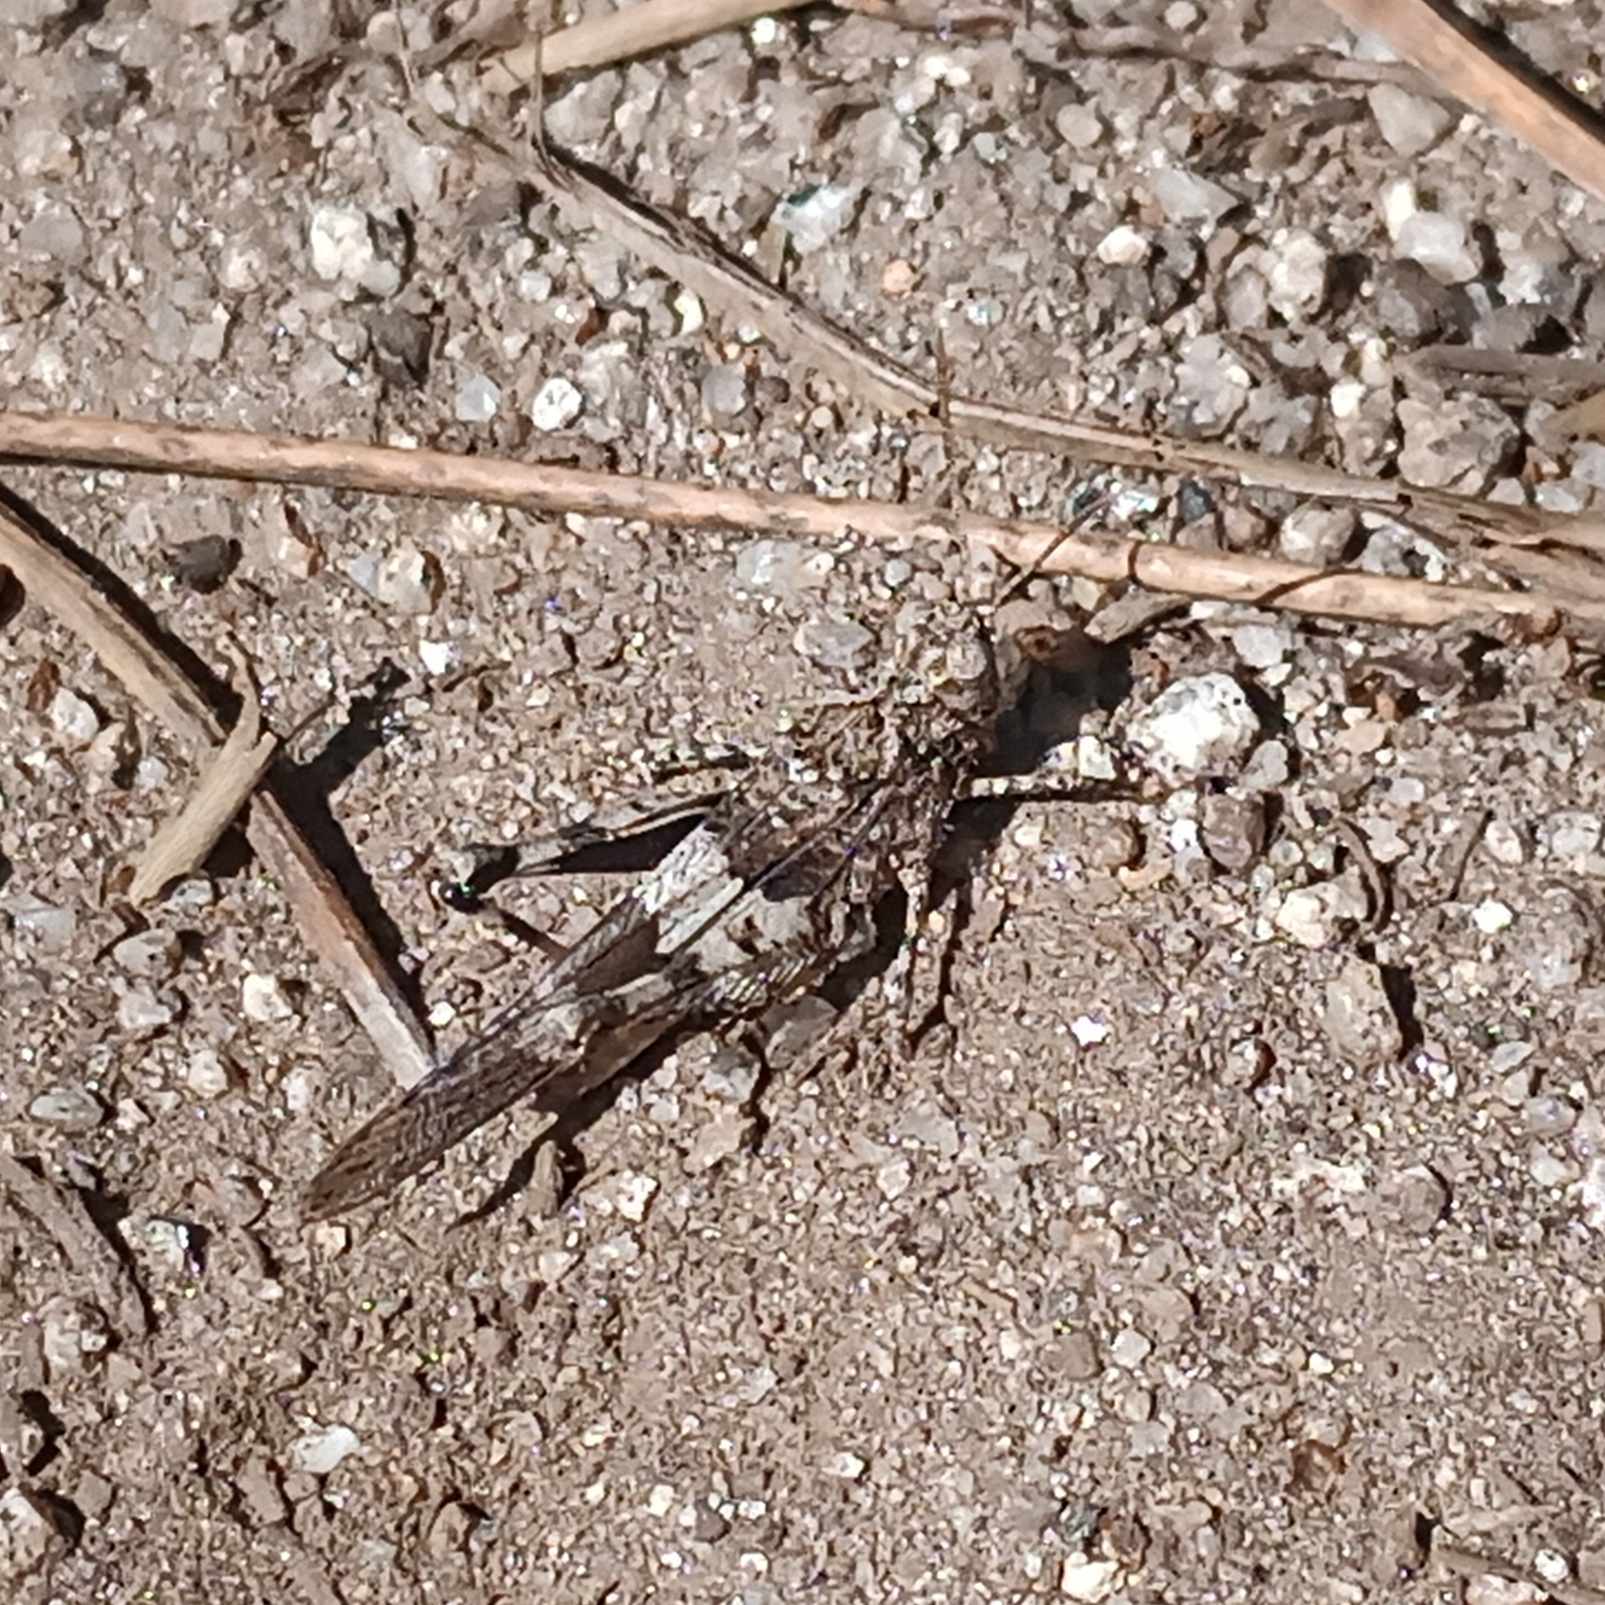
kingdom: Animalia
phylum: Arthropoda
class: Insecta
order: Orthoptera
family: Acrididae
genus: Oedipoda
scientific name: Oedipoda caerulescens
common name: Blue-winged grasshopper
